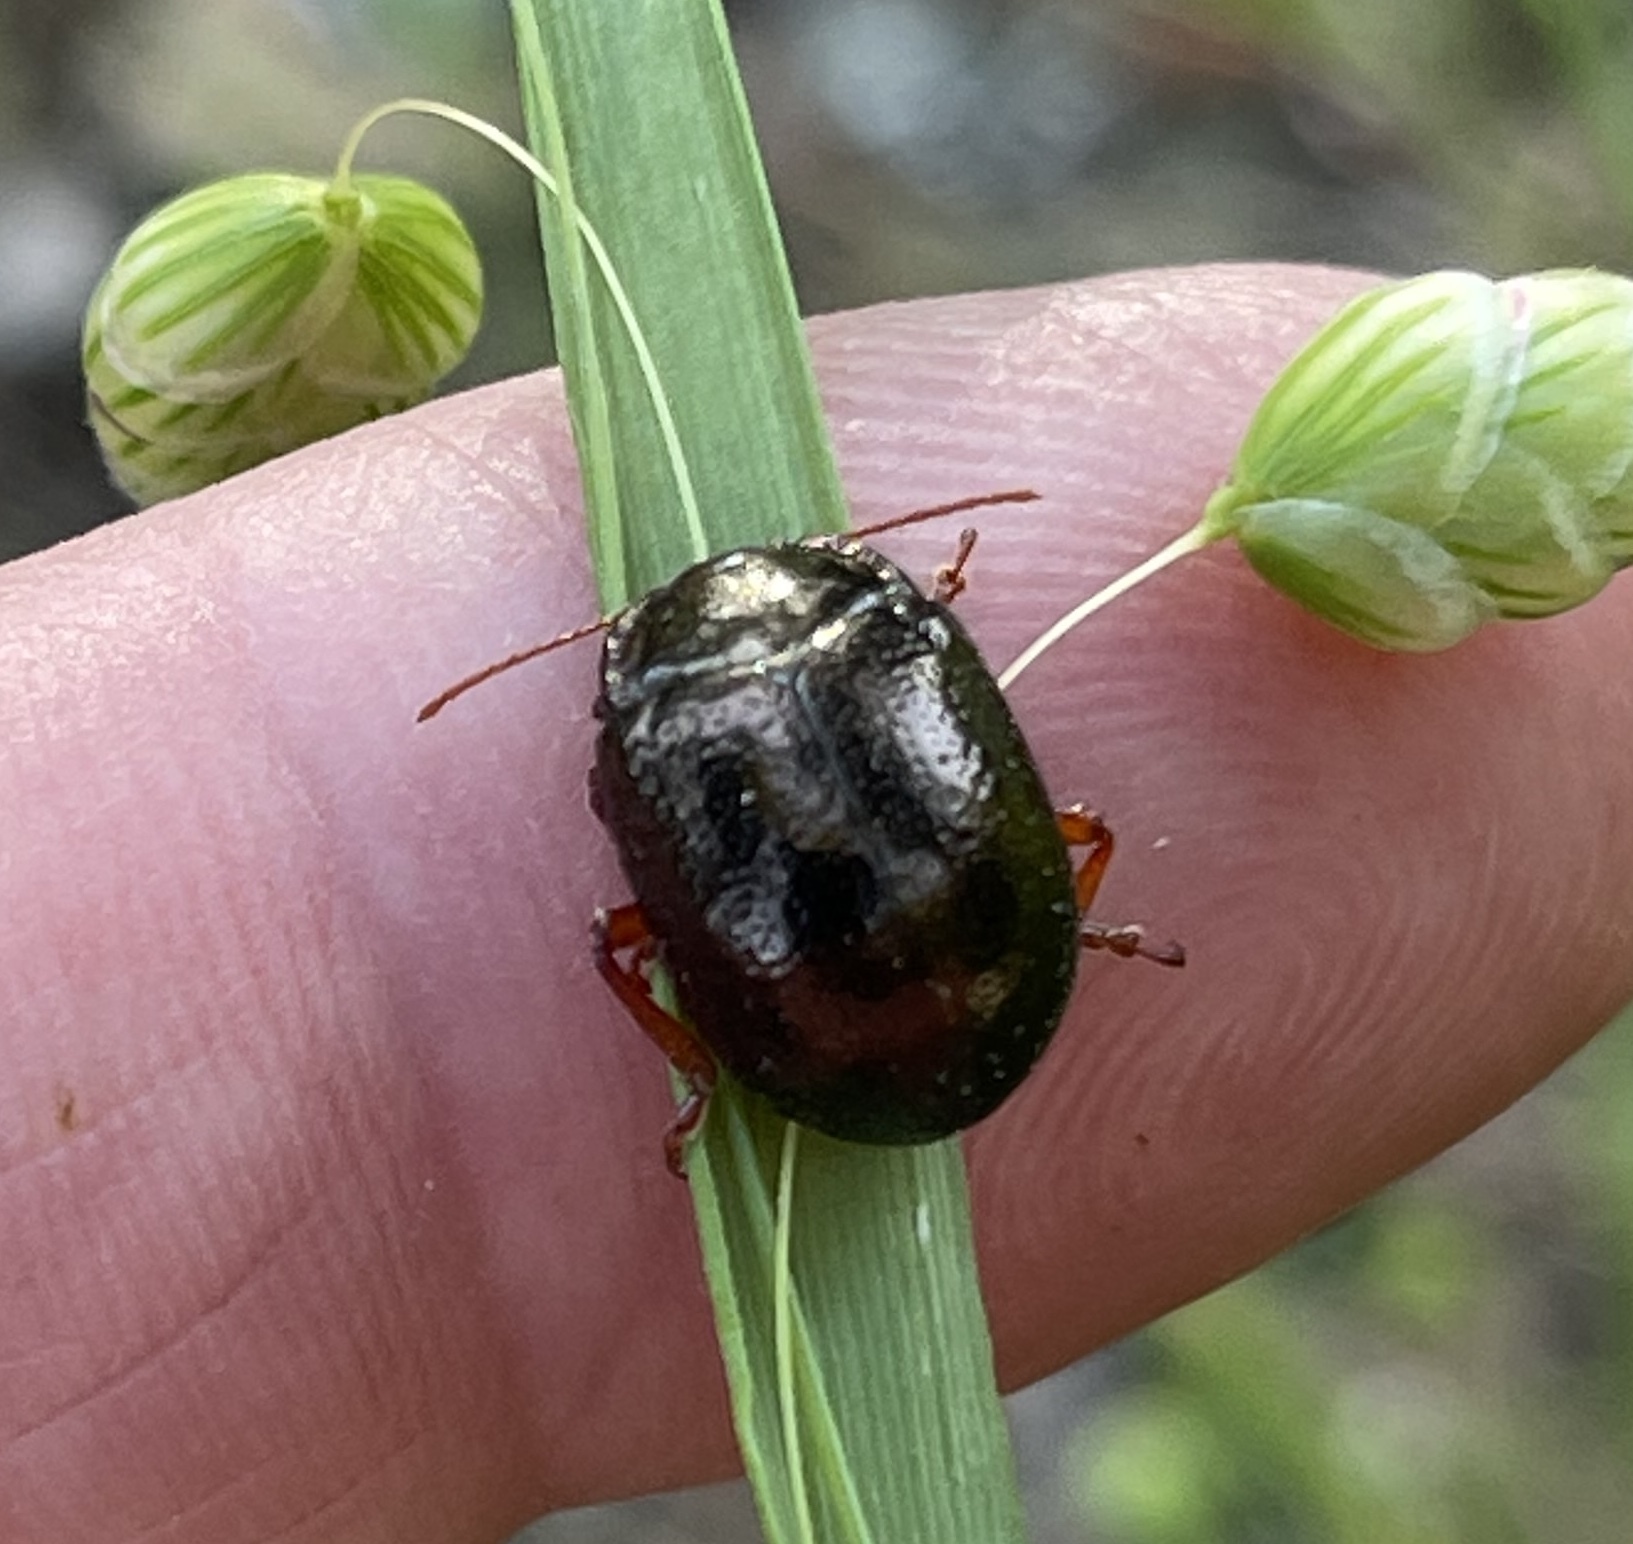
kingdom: Animalia
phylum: Arthropoda
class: Insecta
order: Coleoptera
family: Chrysomelidae
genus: Chrysolina
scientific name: Chrysolina bankii
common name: Leaf beetle
